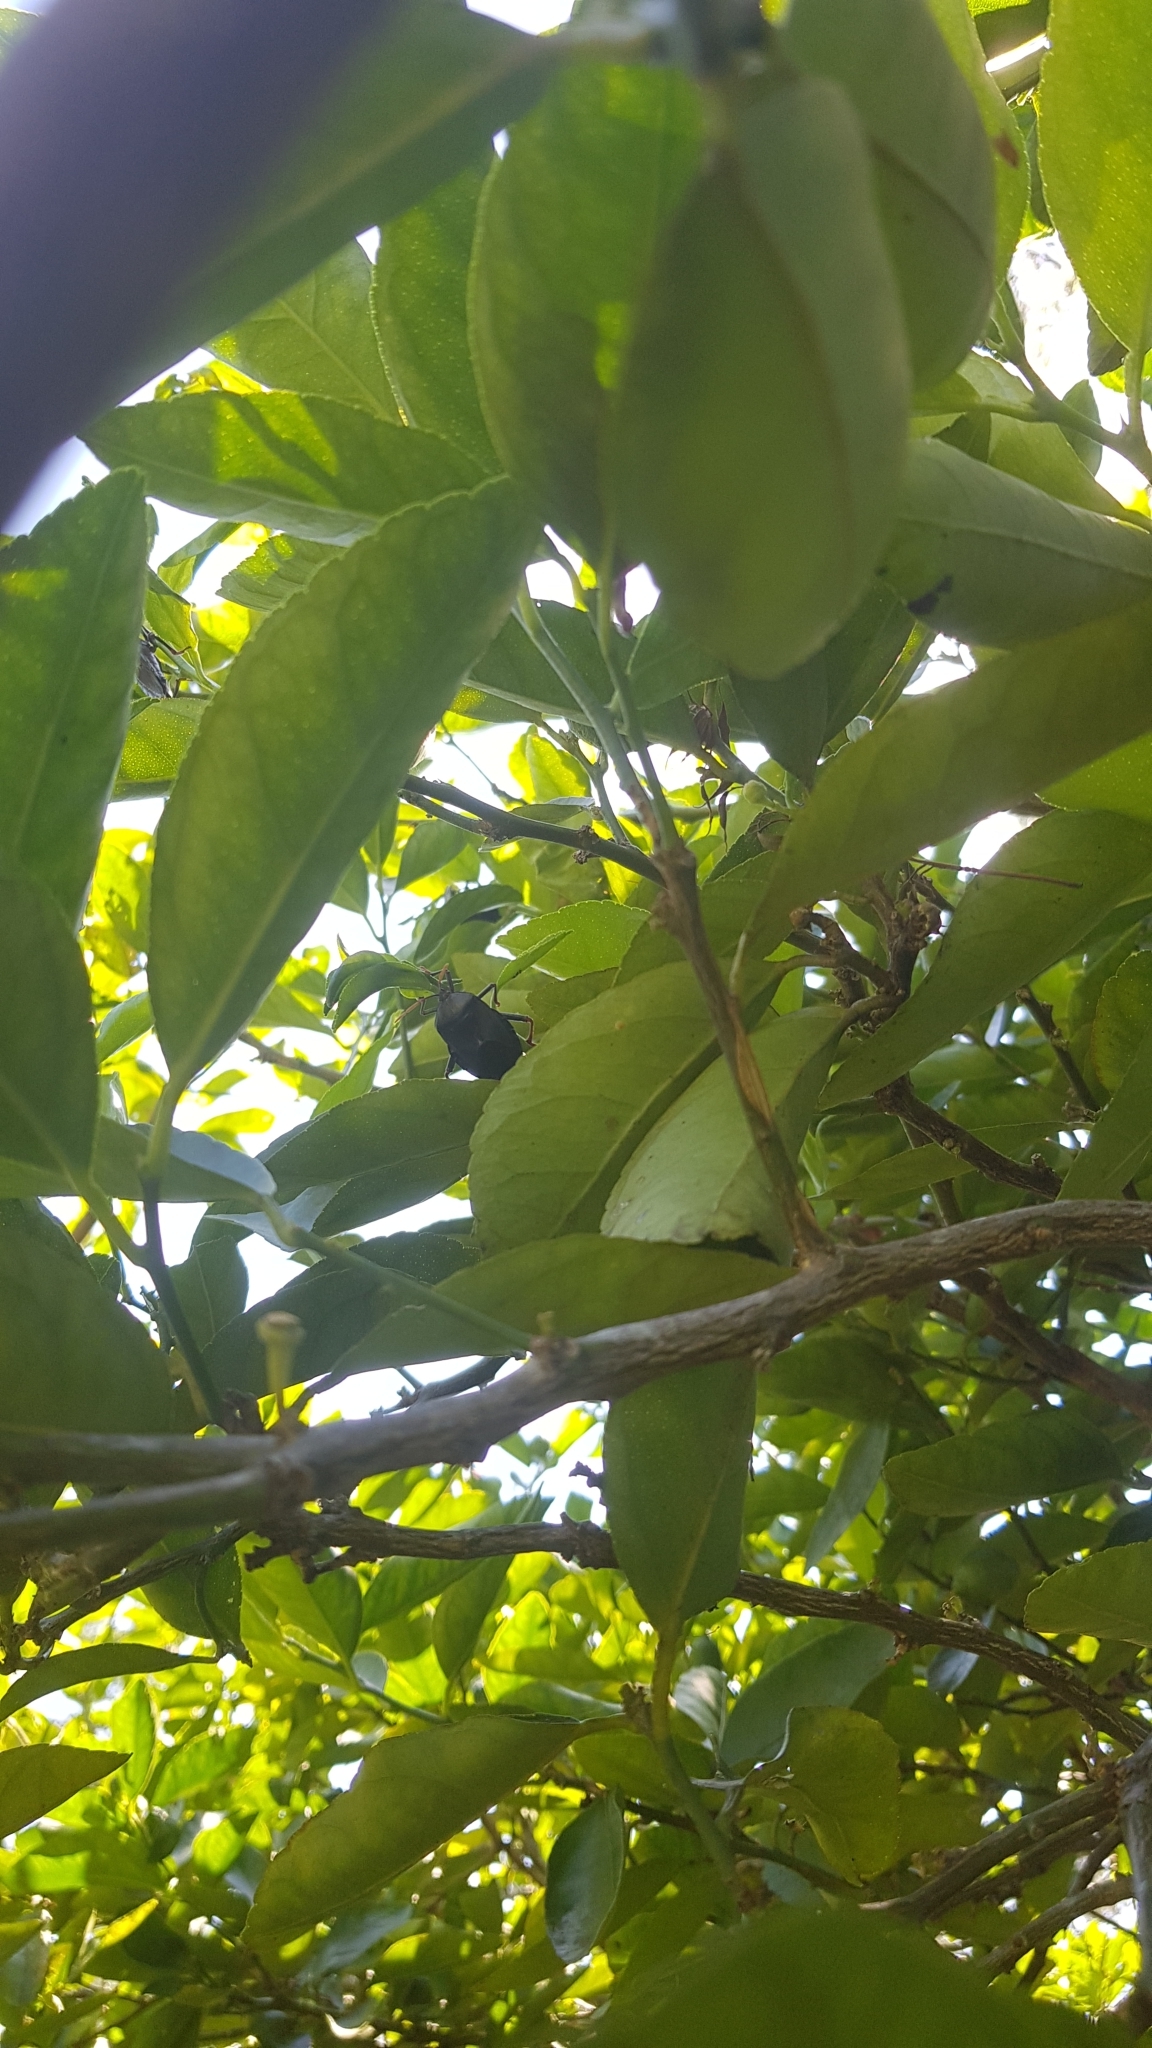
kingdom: Animalia
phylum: Arthropoda
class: Insecta
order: Hemiptera
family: Tessaratomidae
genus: Musgraveia
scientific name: Musgraveia sulciventris
